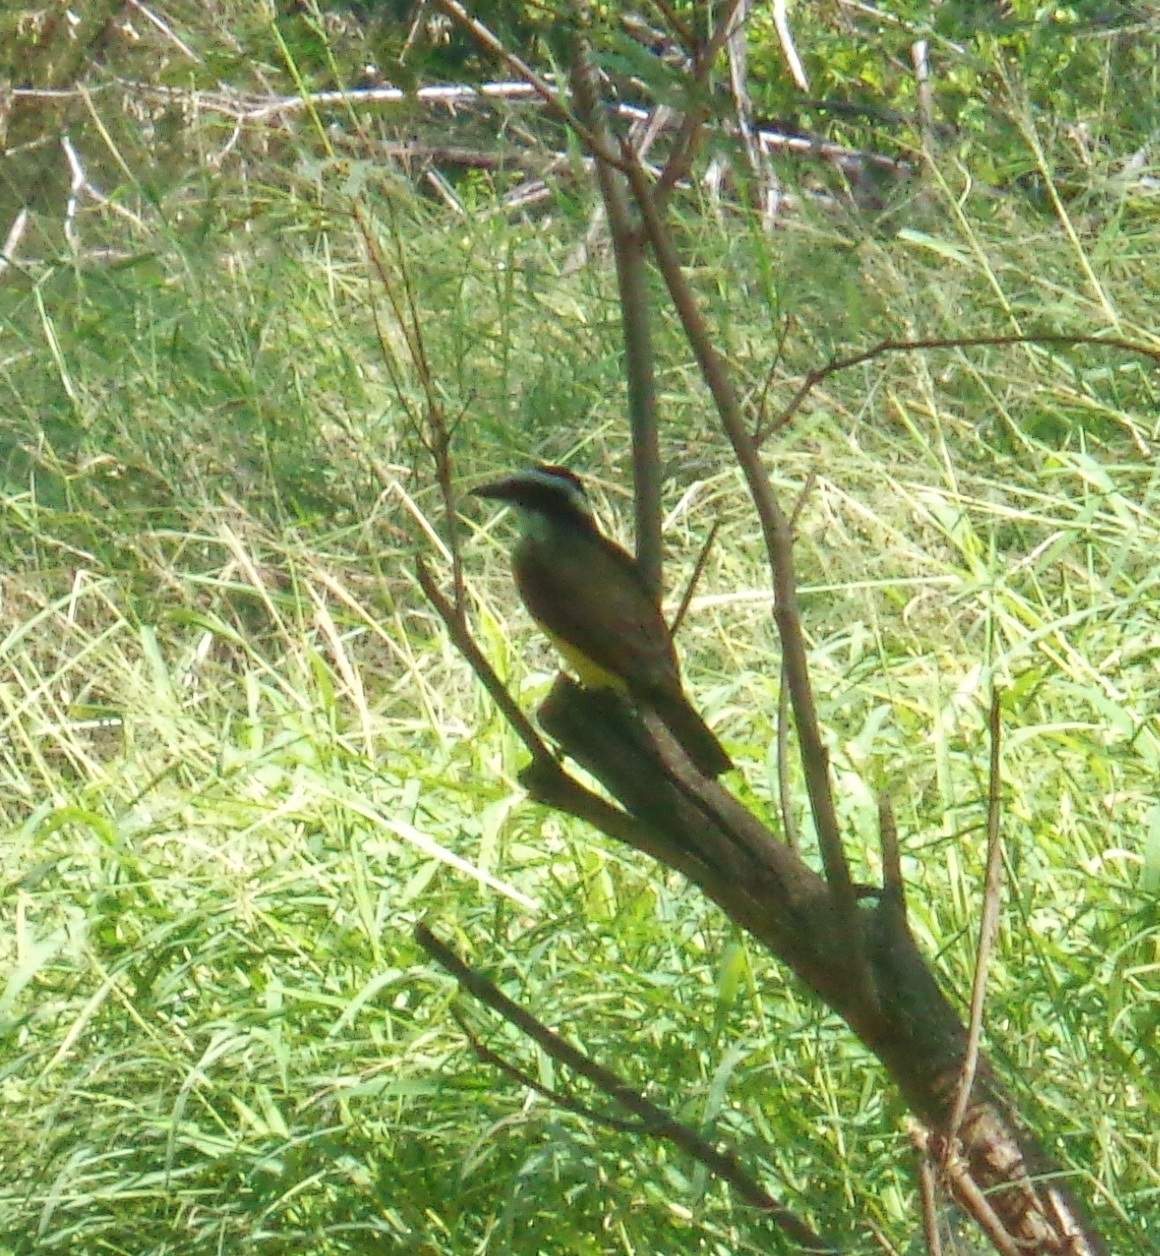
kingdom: Animalia
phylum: Chordata
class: Aves
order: Passeriformes
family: Tyrannidae
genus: Pitangus
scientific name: Pitangus sulphuratus
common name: Great kiskadee
